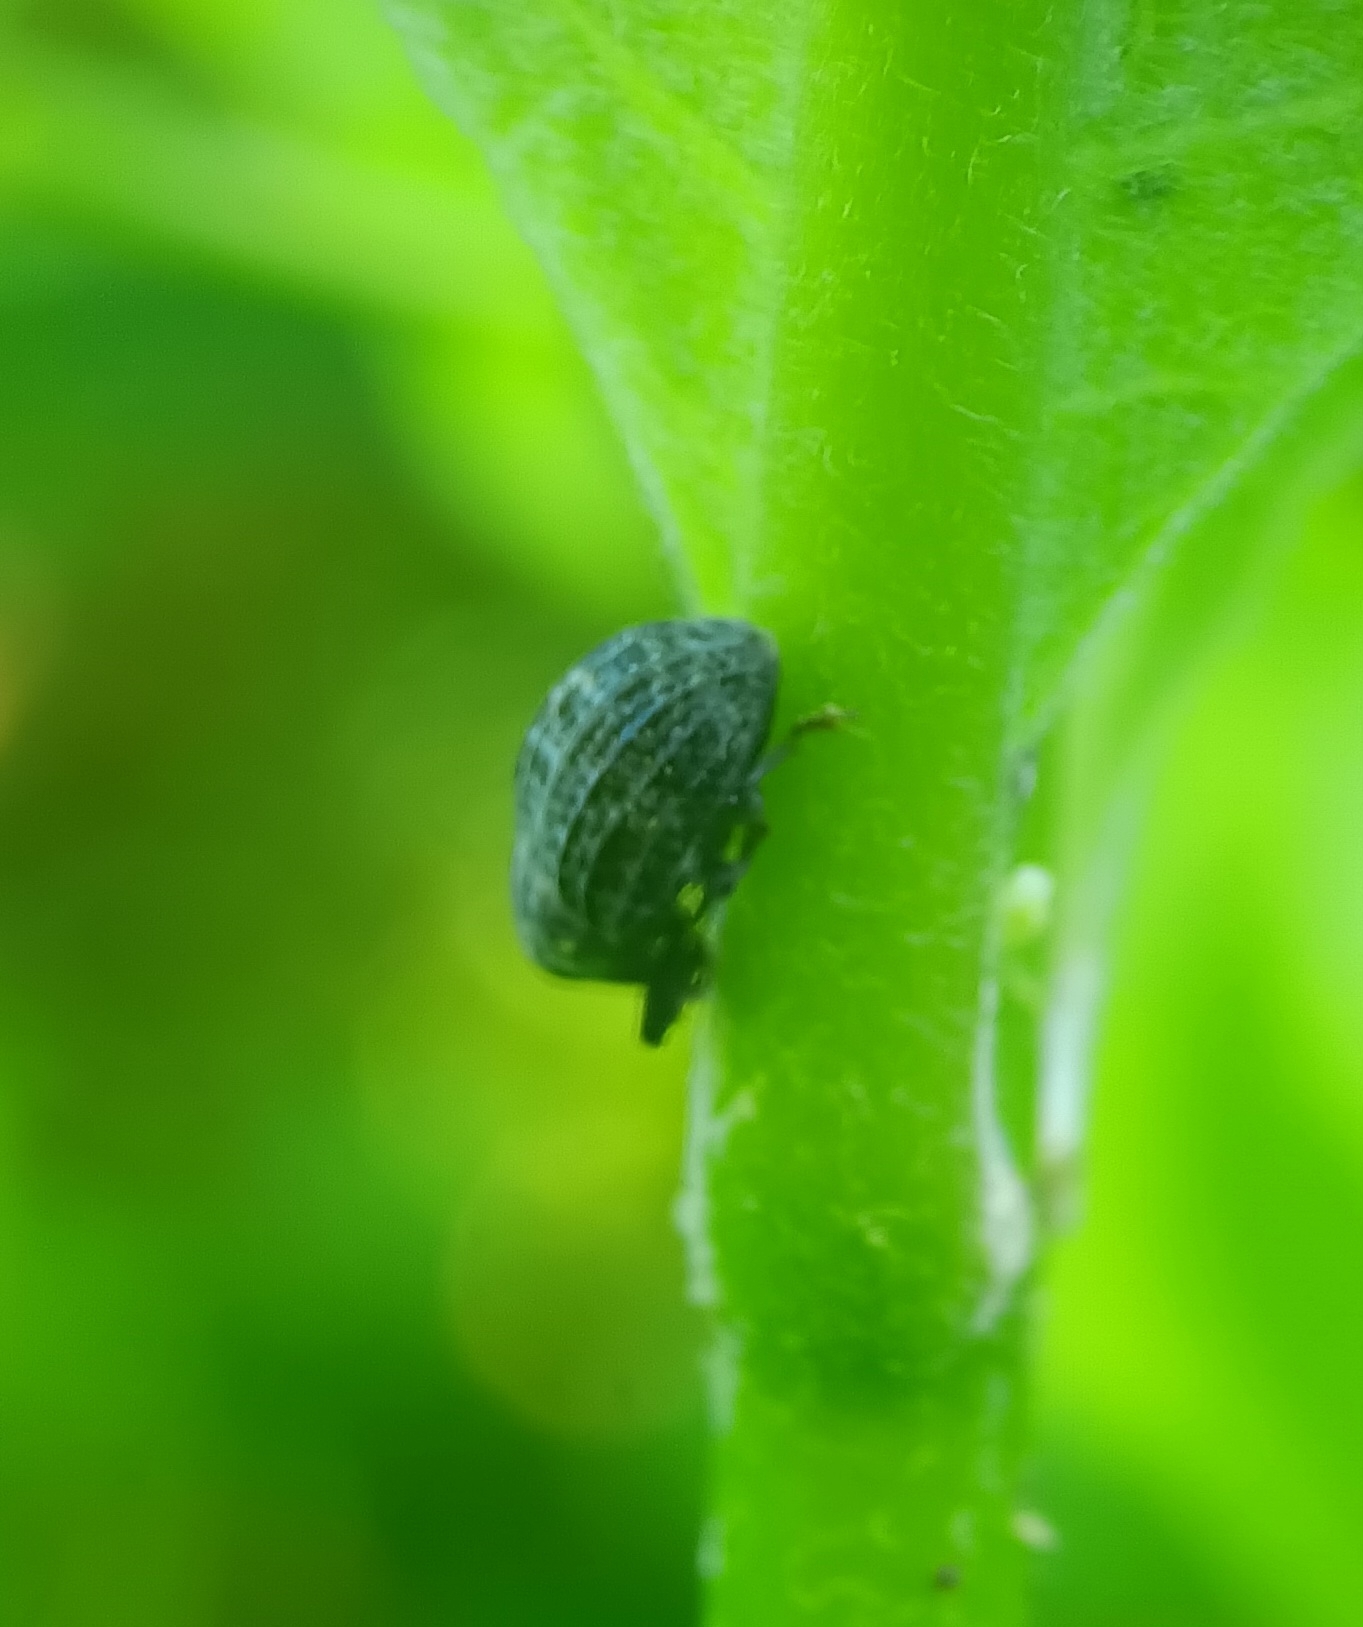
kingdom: Animalia
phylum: Arthropoda
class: Insecta
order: Coleoptera
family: Curculionidae
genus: Rhyssomatus
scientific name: Rhyssomatus lineaticollis
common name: Milkweed stem weevil
